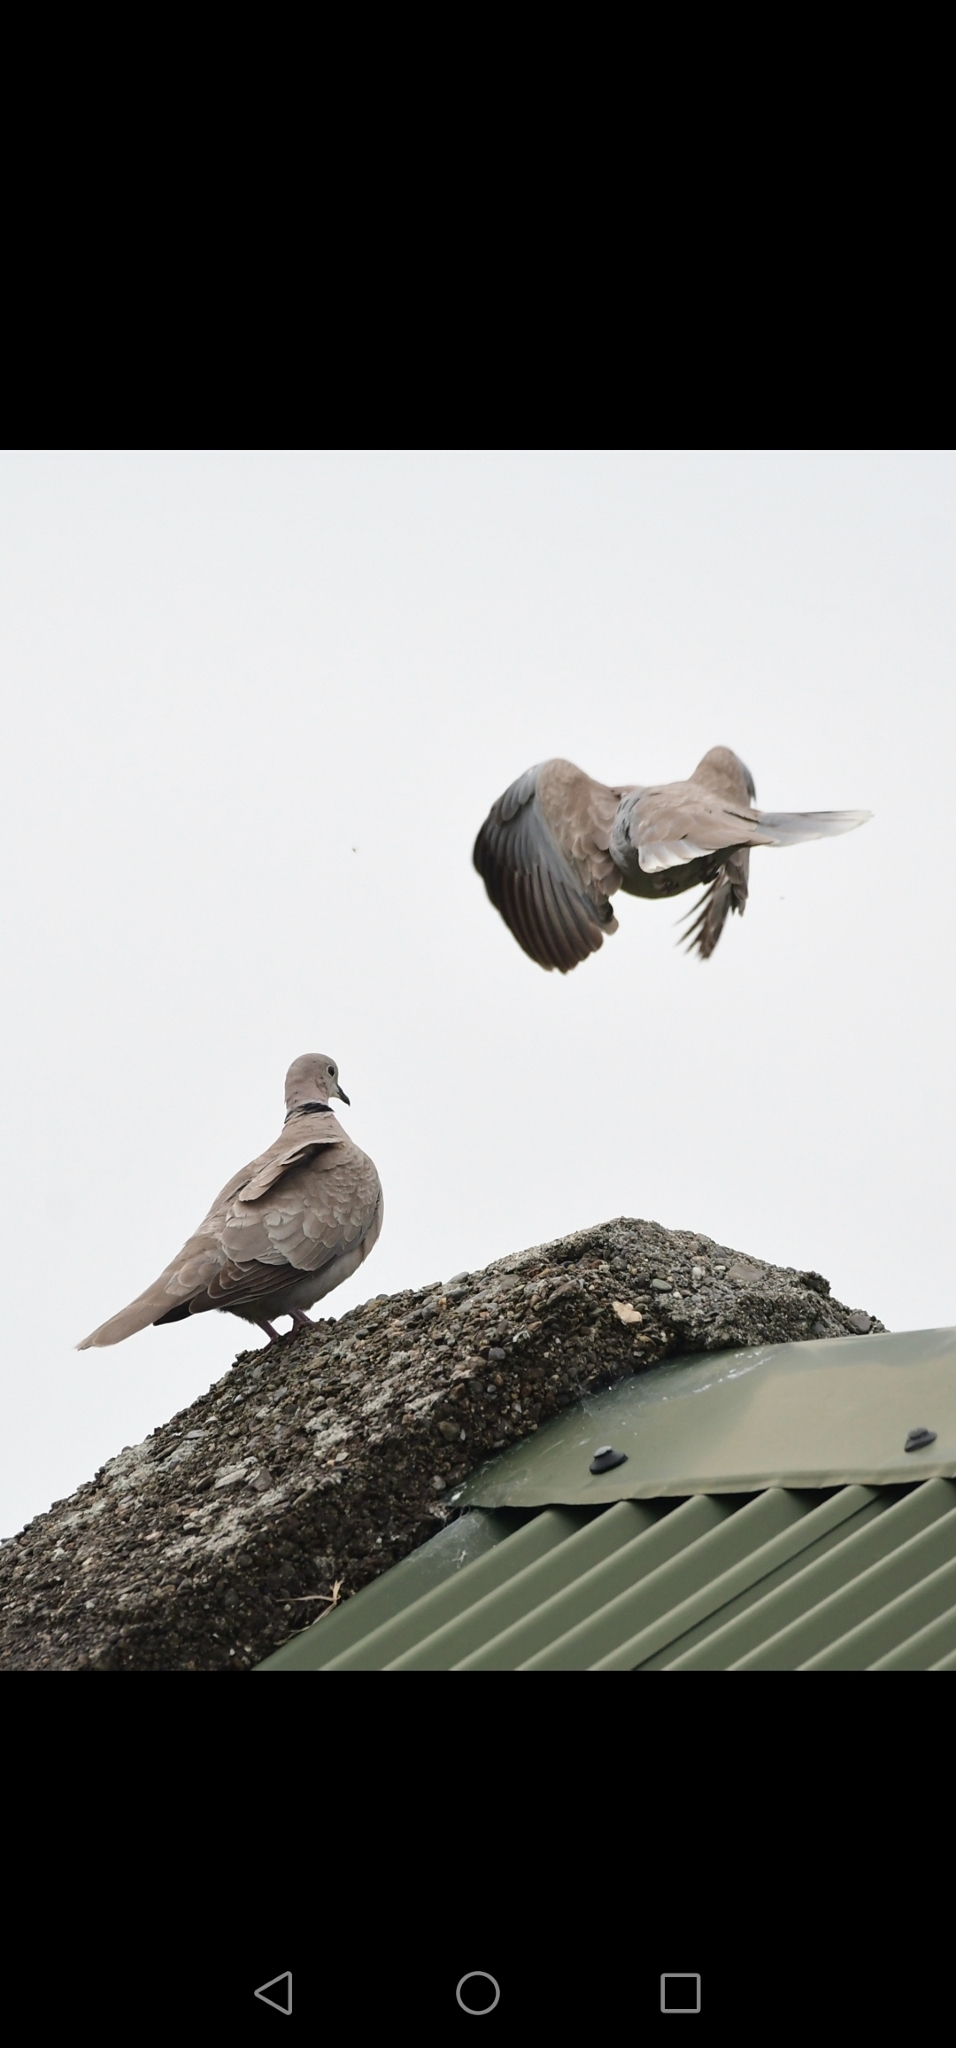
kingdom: Animalia
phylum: Chordata
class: Aves
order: Columbiformes
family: Columbidae
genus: Streptopelia
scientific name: Streptopelia decaocto
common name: Eurasian collared dove
